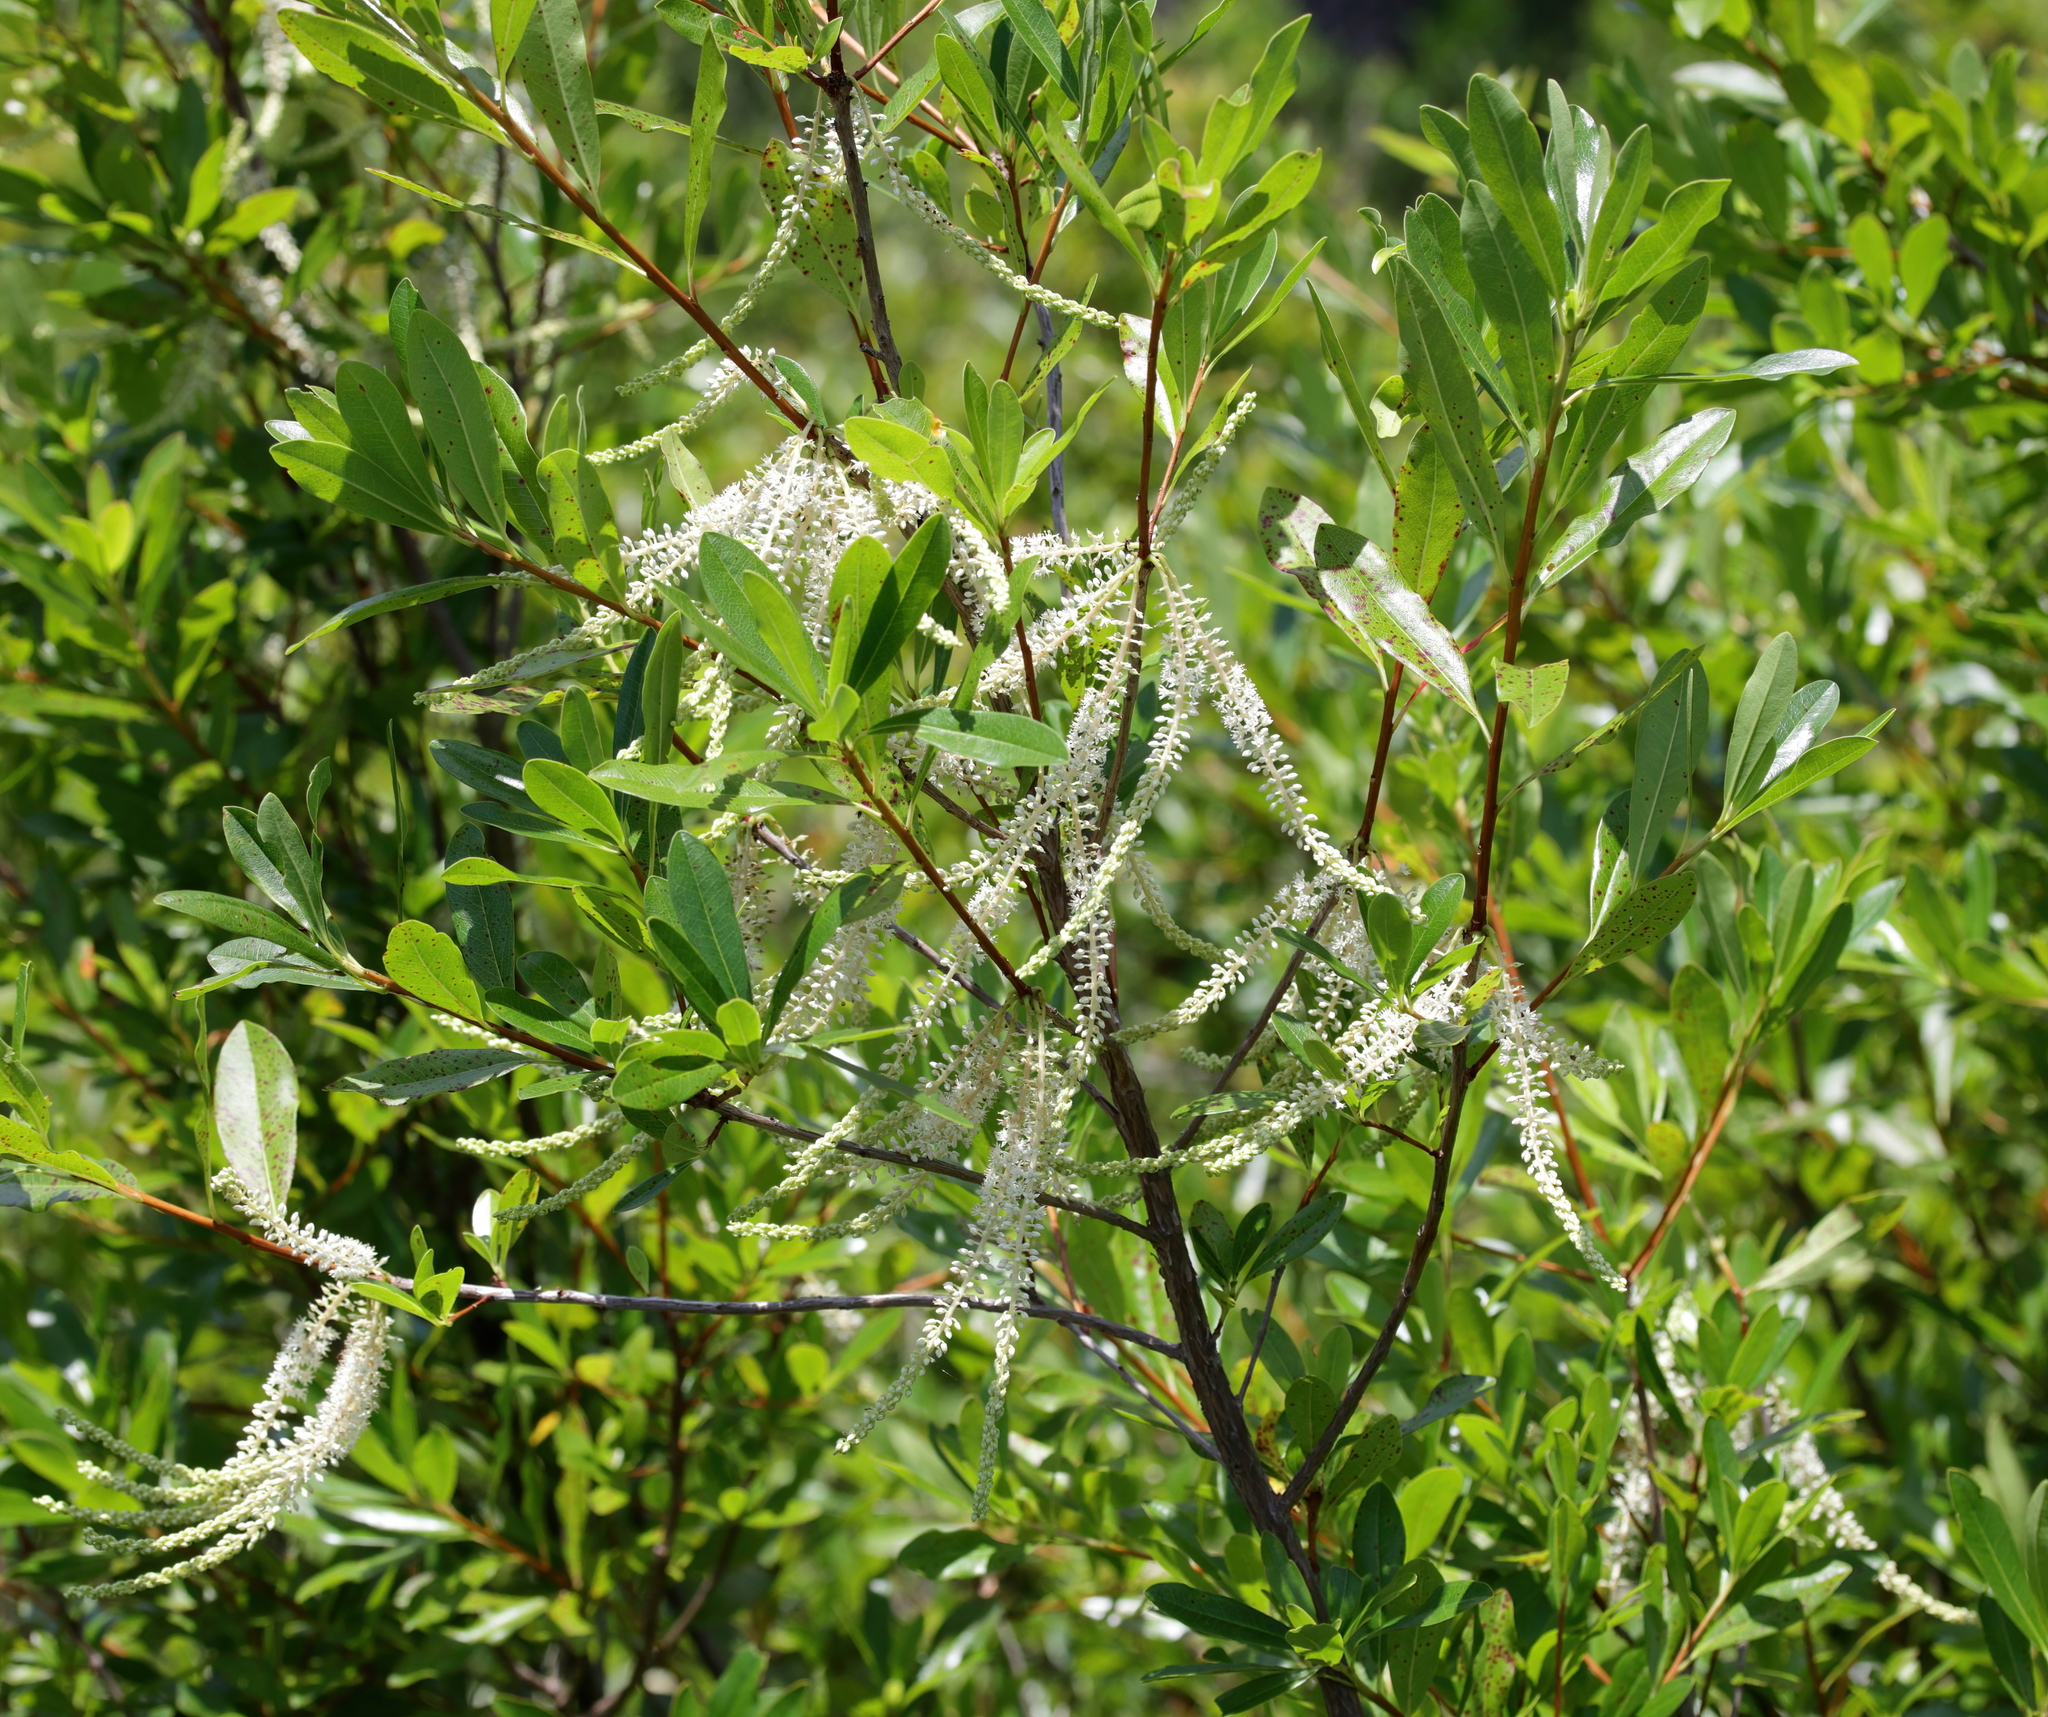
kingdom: Plantae
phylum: Tracheophyta
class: Magnoliopsida
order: Ericales
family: Cyrillaceae
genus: Cyrilla
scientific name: Cyrilla racemiflora
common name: Black titi
